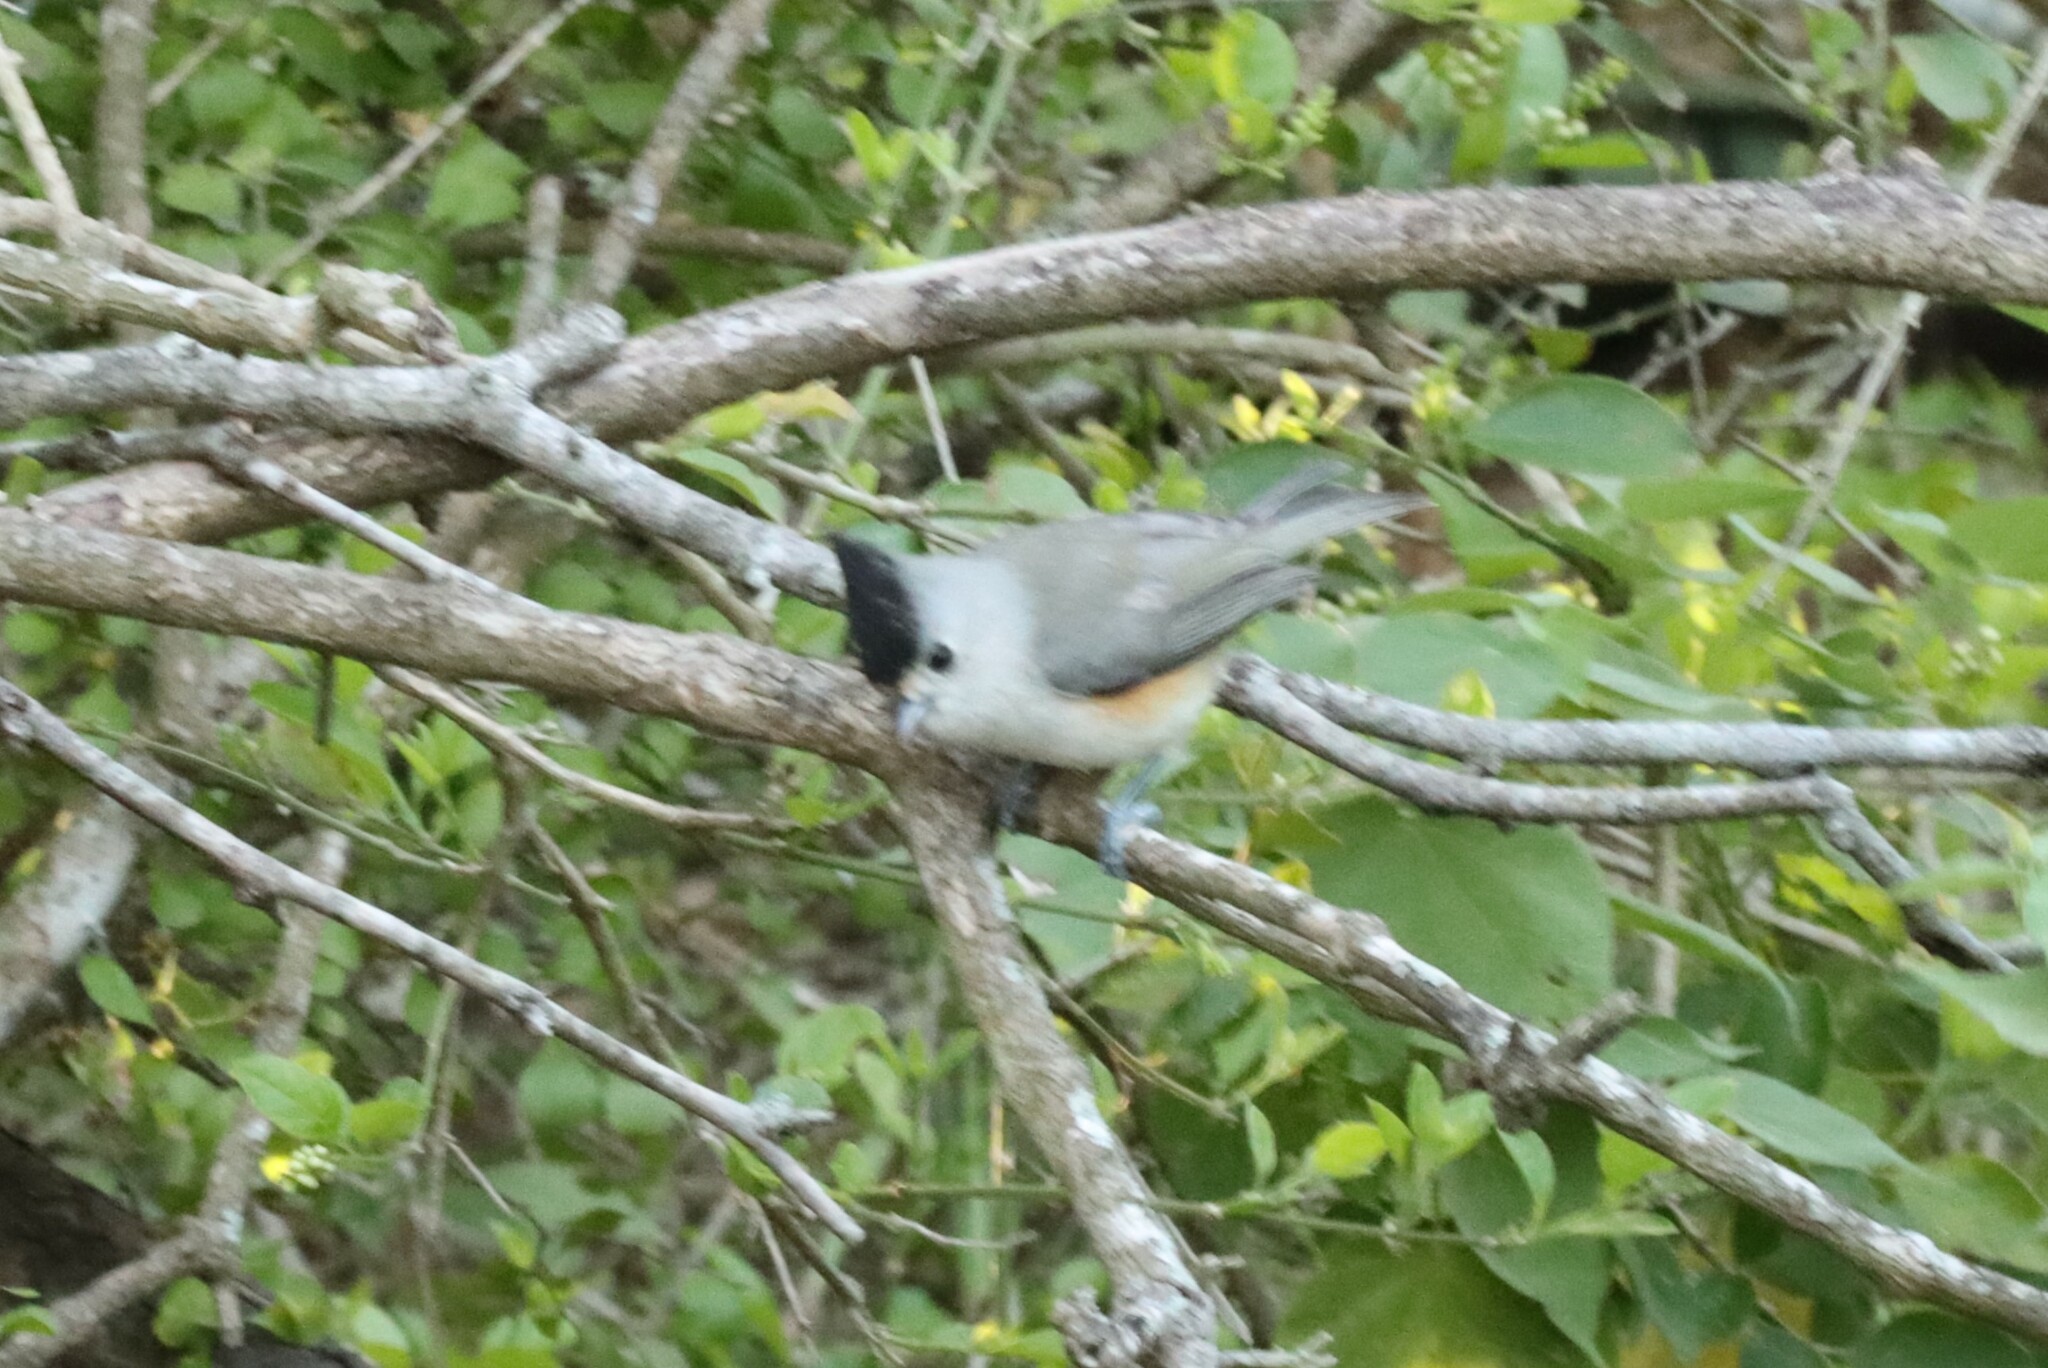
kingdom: Animalia
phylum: Chordata
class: Aves
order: Passeriformes
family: Paridae
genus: Baeolophus
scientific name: Baeolophus atricristatus
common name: Black-crested titmouse
